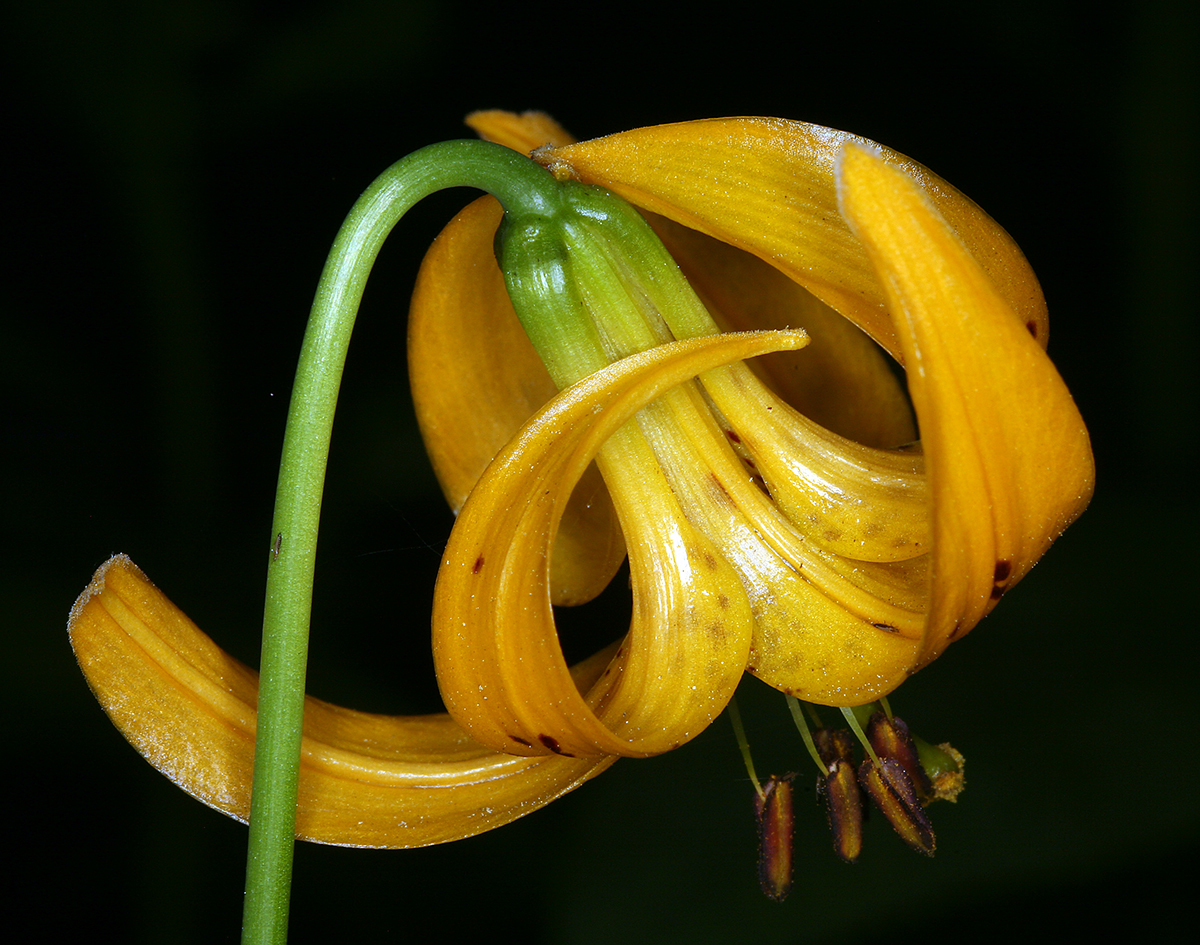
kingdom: Plantae
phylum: Tracheophyta
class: Liliopsida
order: Liliales
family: Liliaceae
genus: Lilium
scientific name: Lilium kelleyanum
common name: Kelley's lily
